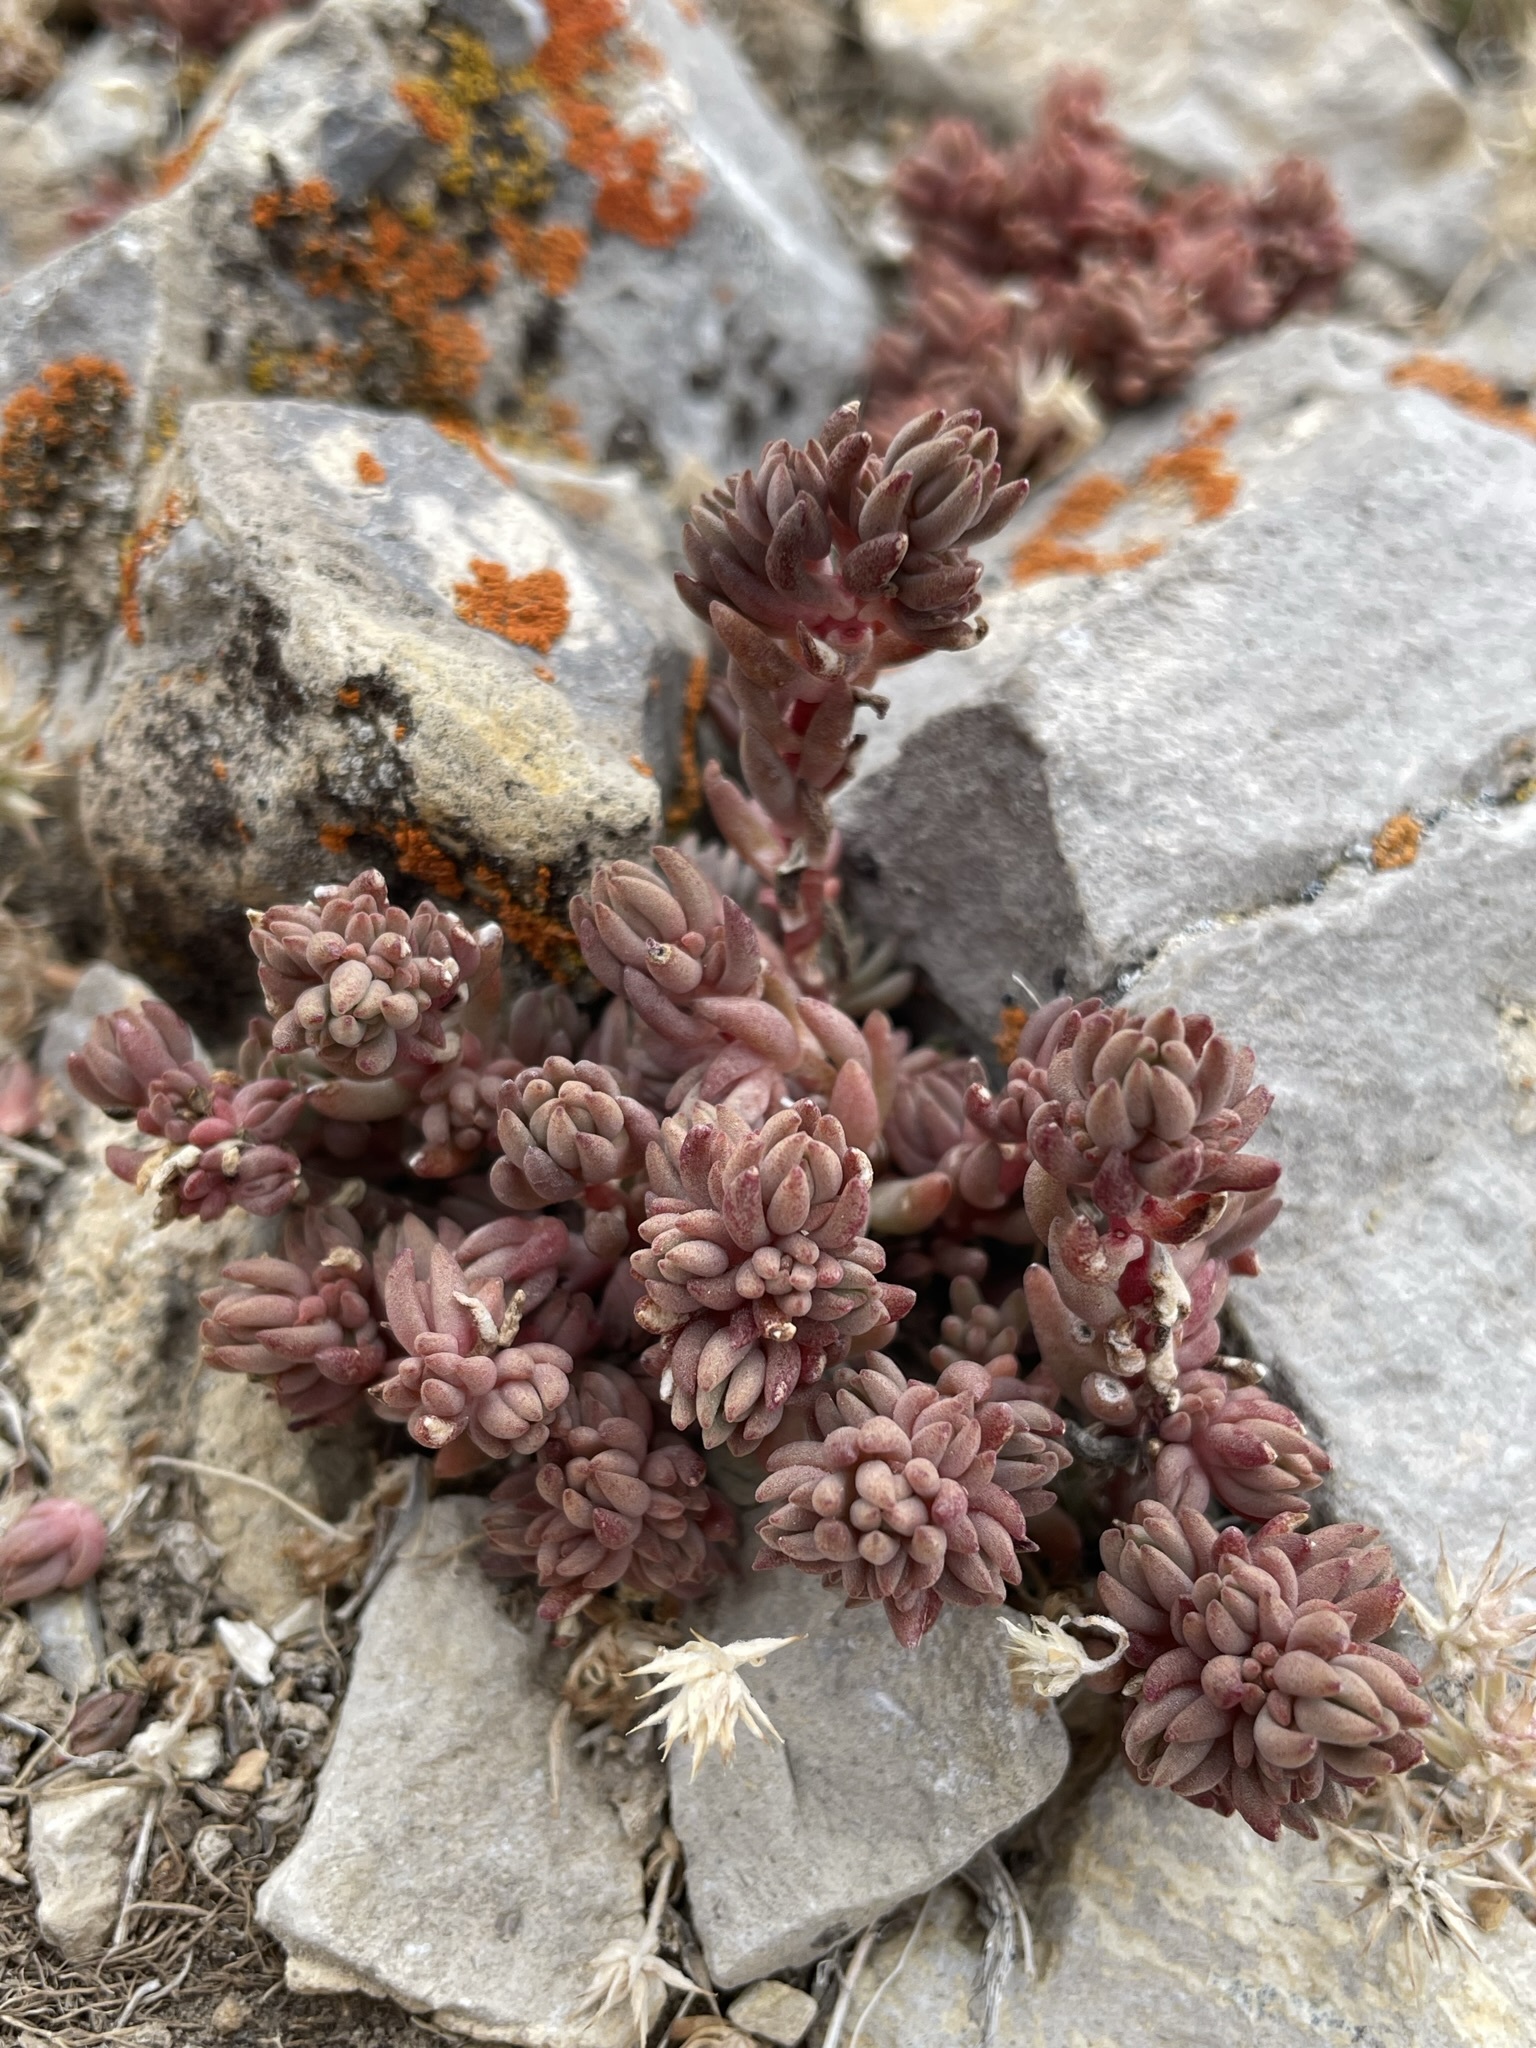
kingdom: Plantae
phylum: Tracheophyta
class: Magnoliopsida
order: Saxifragales
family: Crassulaceae
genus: Sedum
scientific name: Sedum lanceolatum
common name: Common stonecrop
